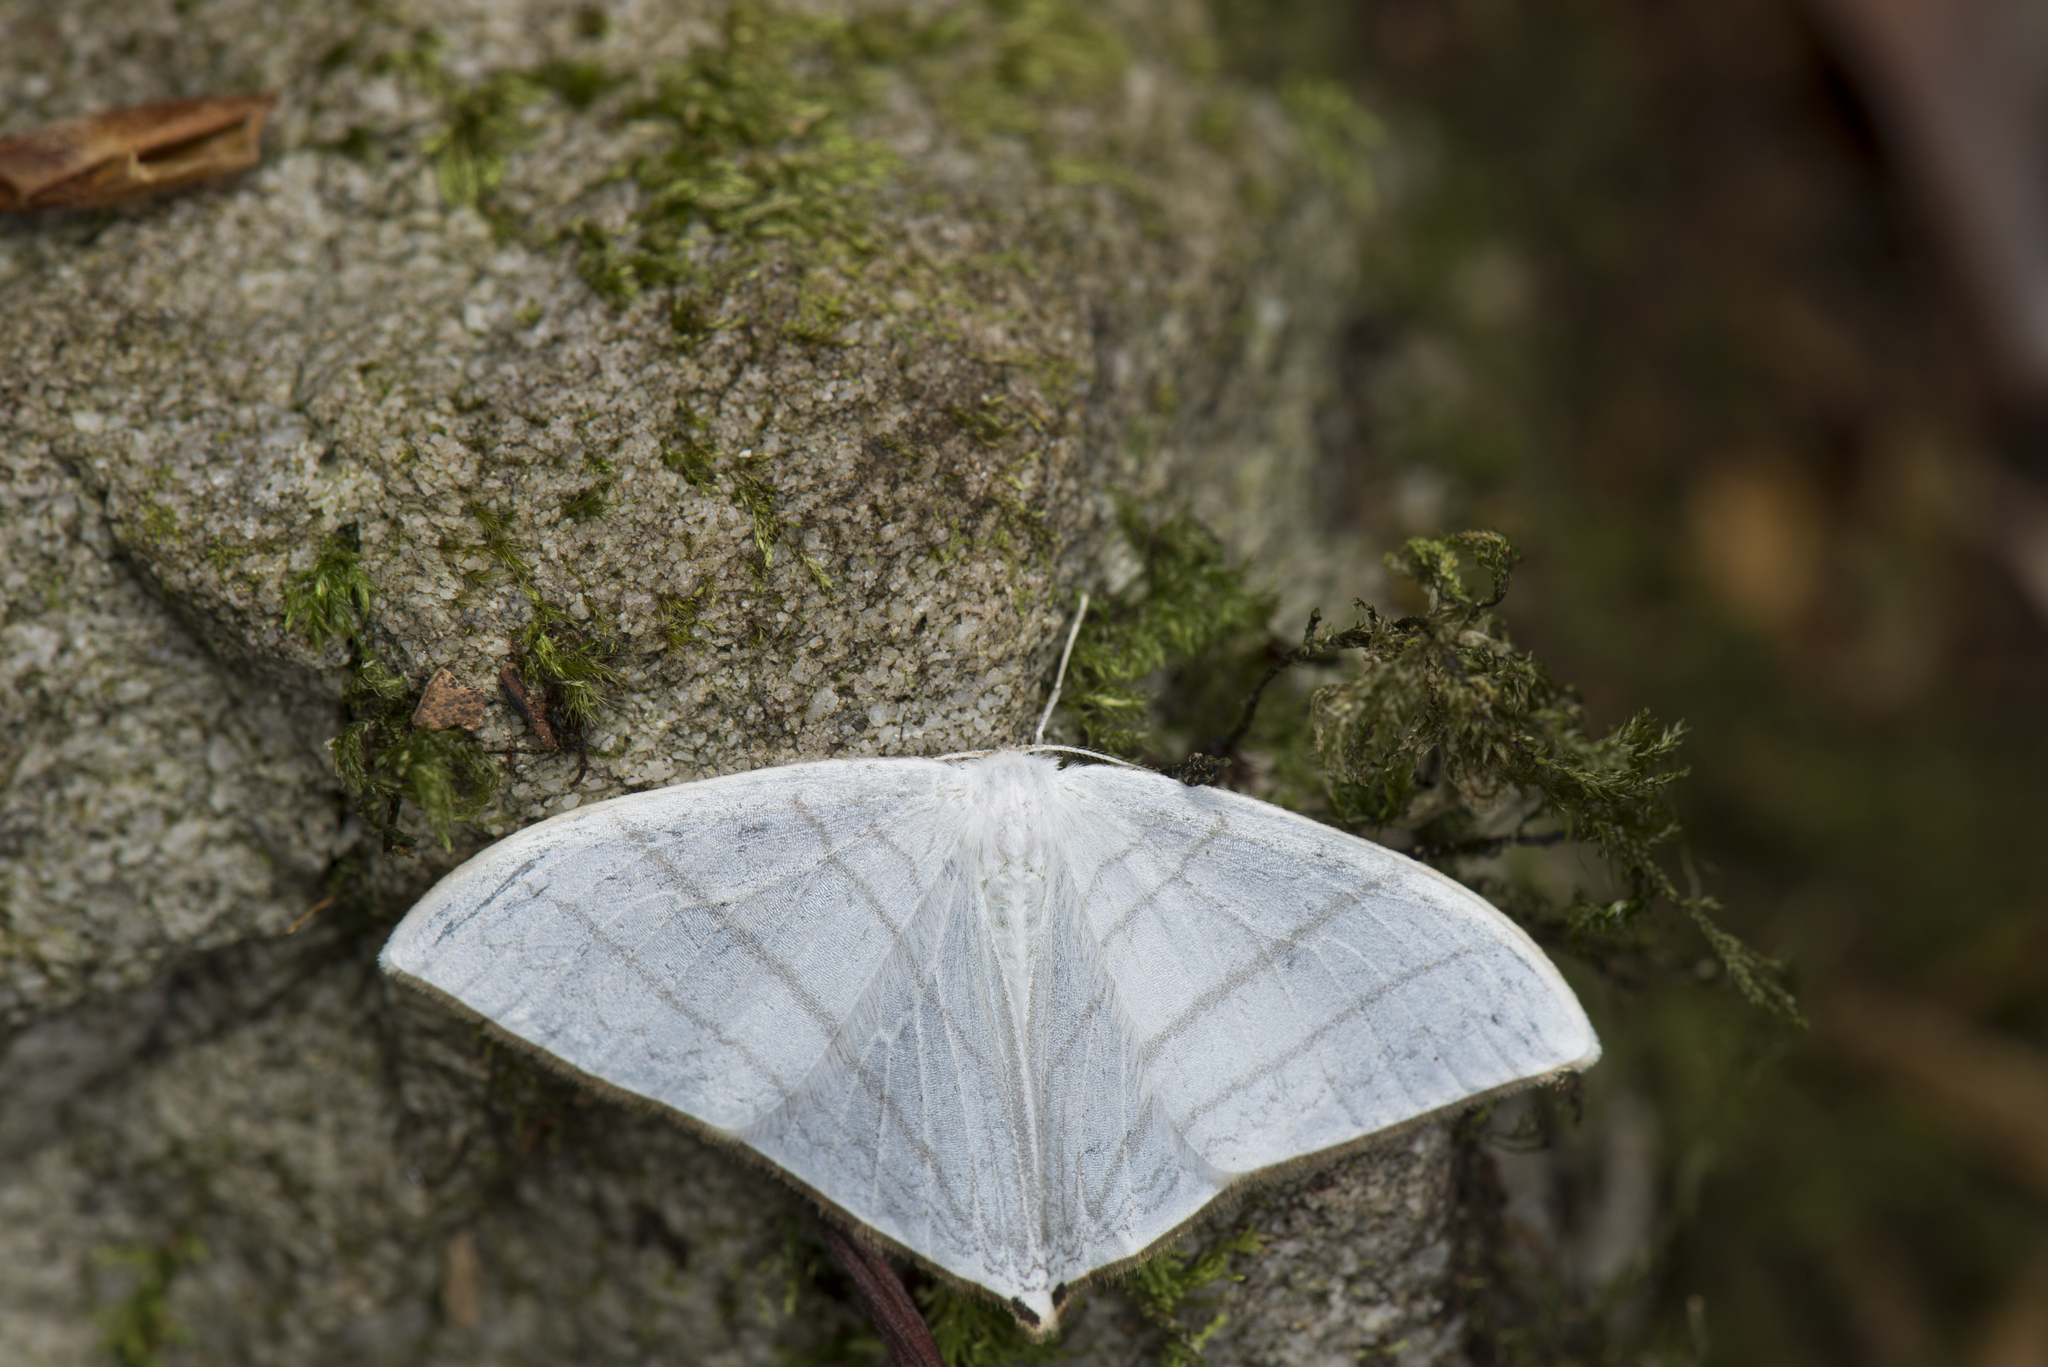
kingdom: Animalia
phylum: Arthropoda
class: Insecta
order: Lepidoptera
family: Drepanidae
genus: Ditrigona
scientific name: Ditrigona triangularia
